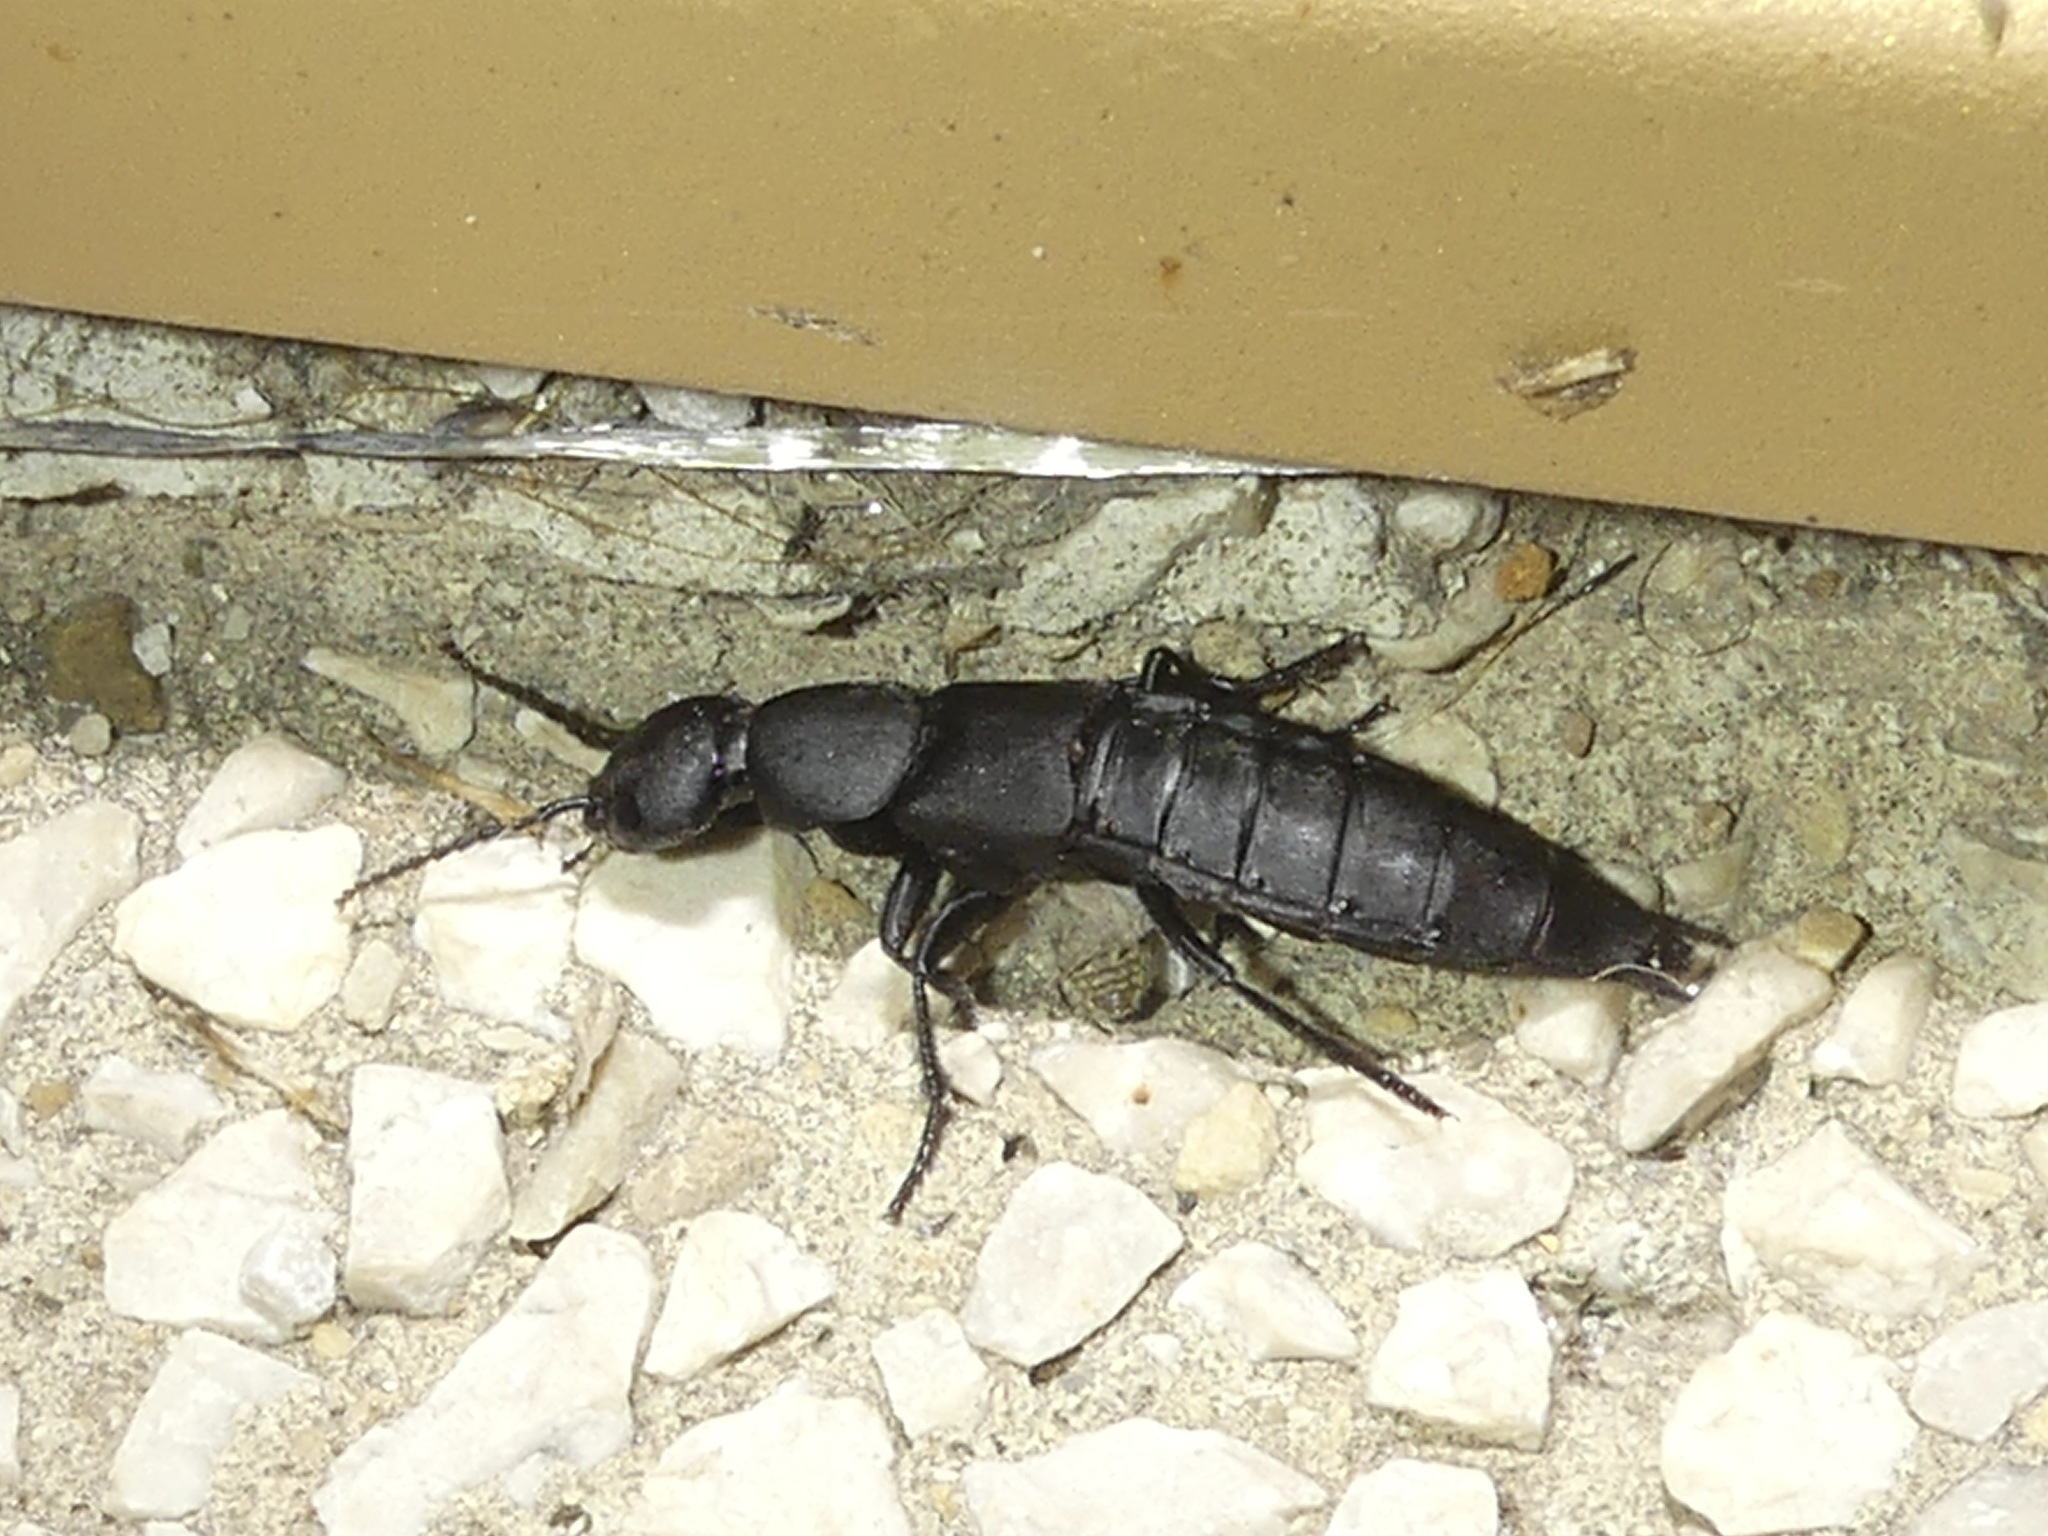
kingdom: Animalia
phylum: Arthropoda
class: Insecta
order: Coleoptera
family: Staphylinidae
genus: Ocypus
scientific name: Ocypus olens
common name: Devil's coach-horse
